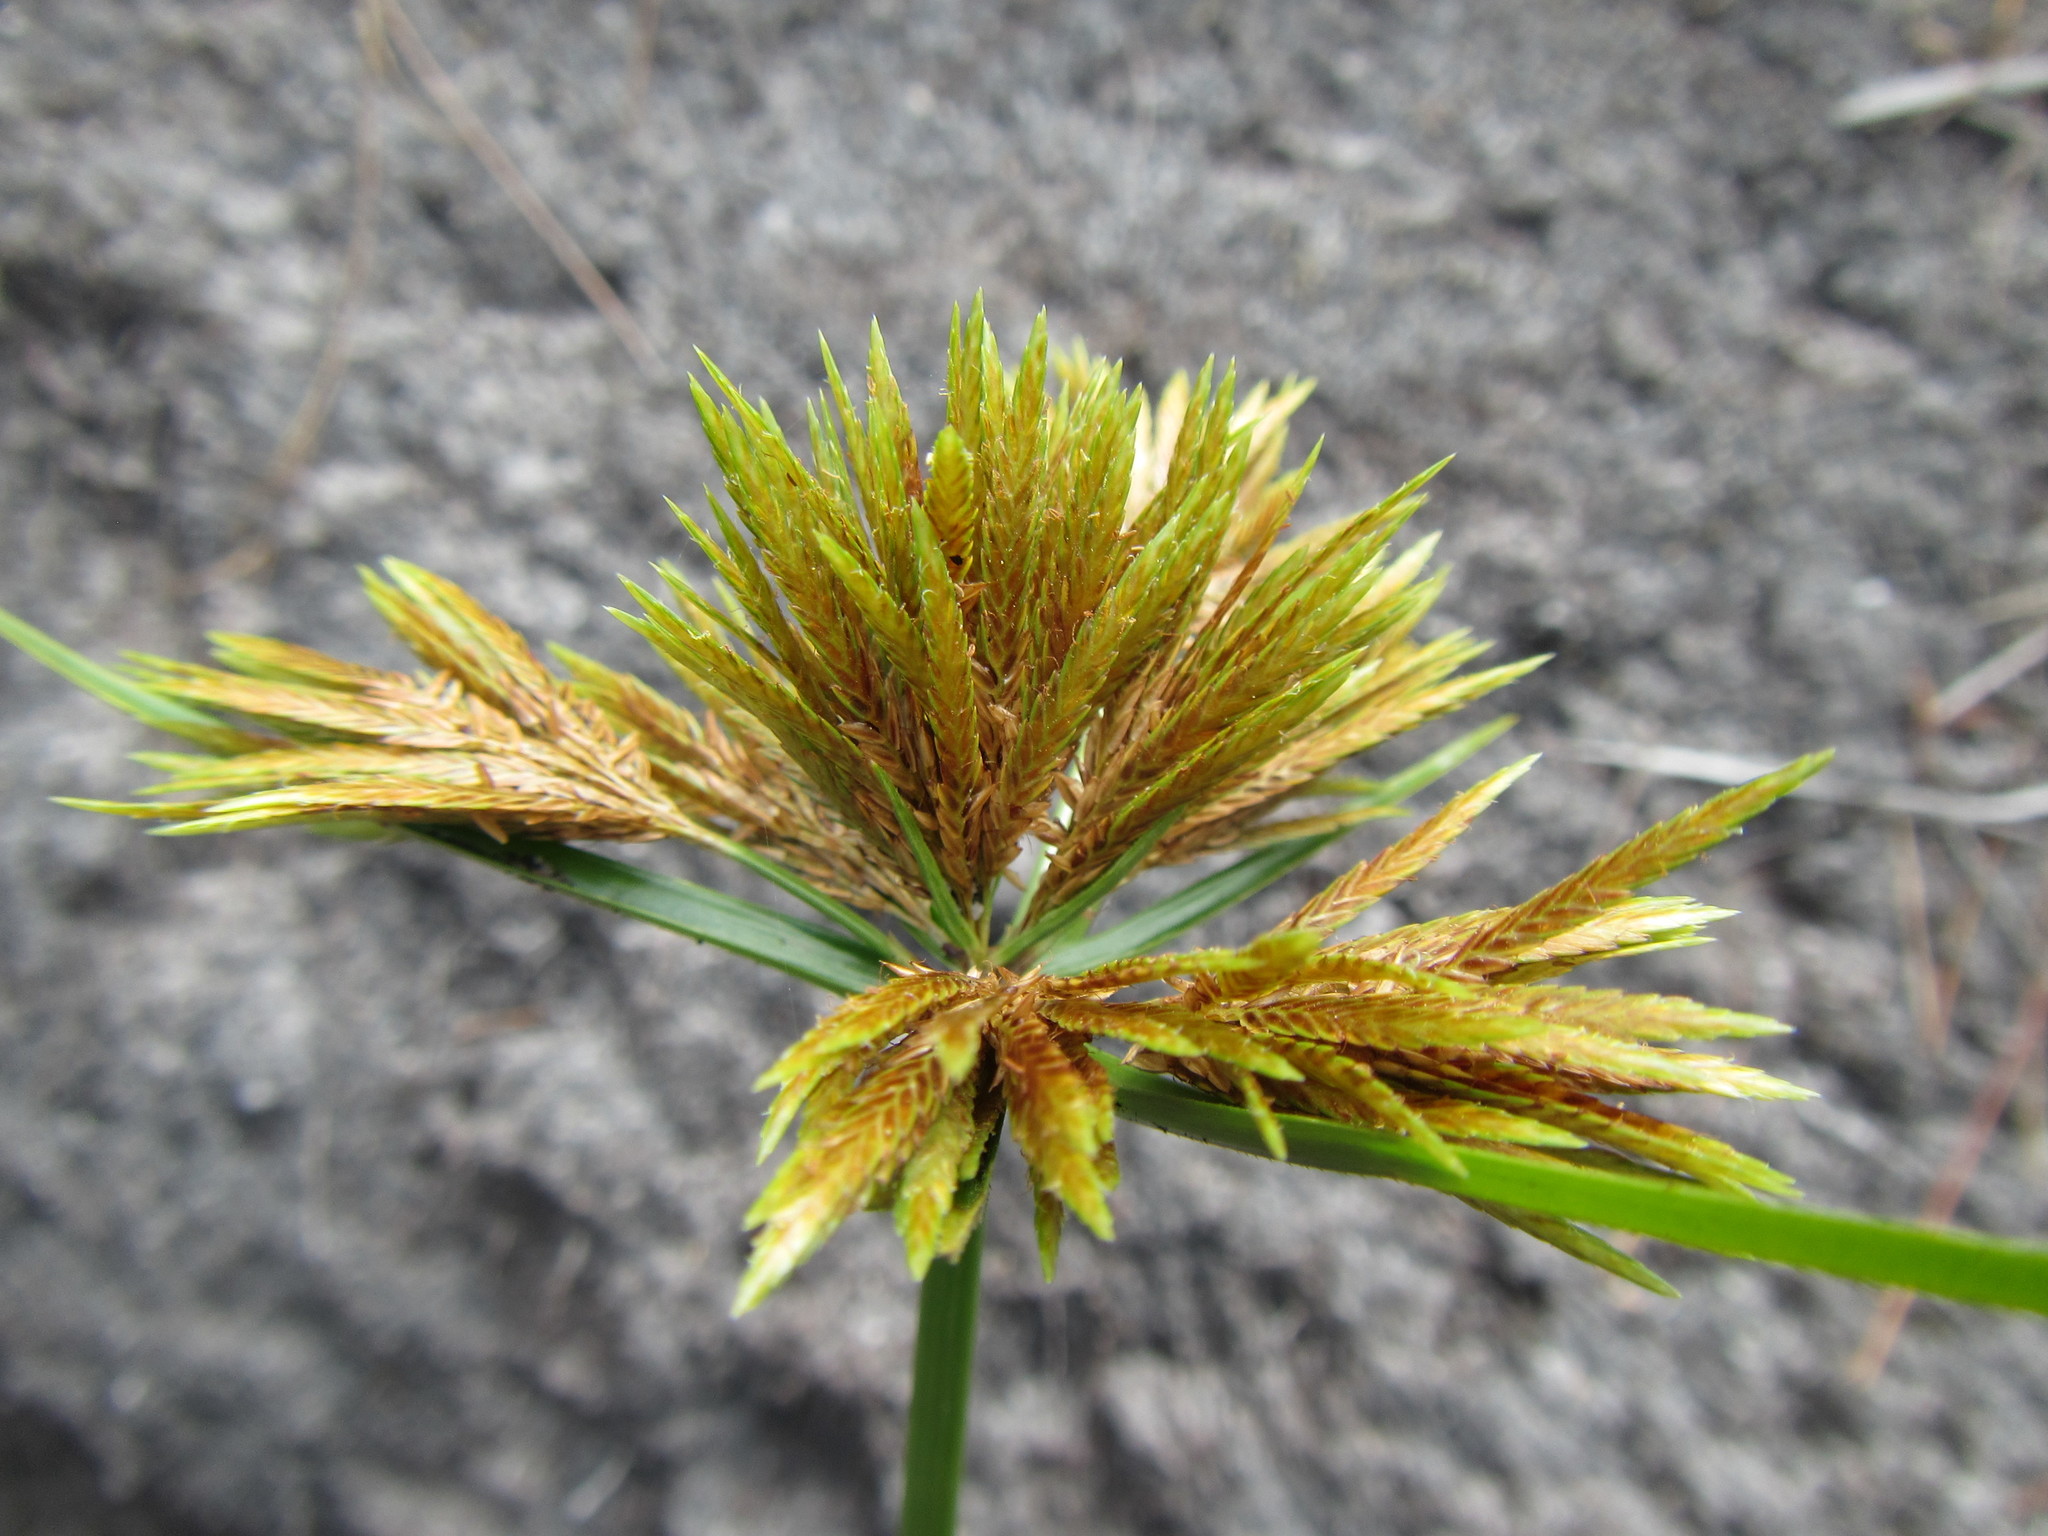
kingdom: Plantae
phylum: Tracheophyta
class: Liliopsida
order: Poales
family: Cyperaceae
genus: Cyperus
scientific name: Cyperus polystachyos
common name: Bunchy flat sedge
